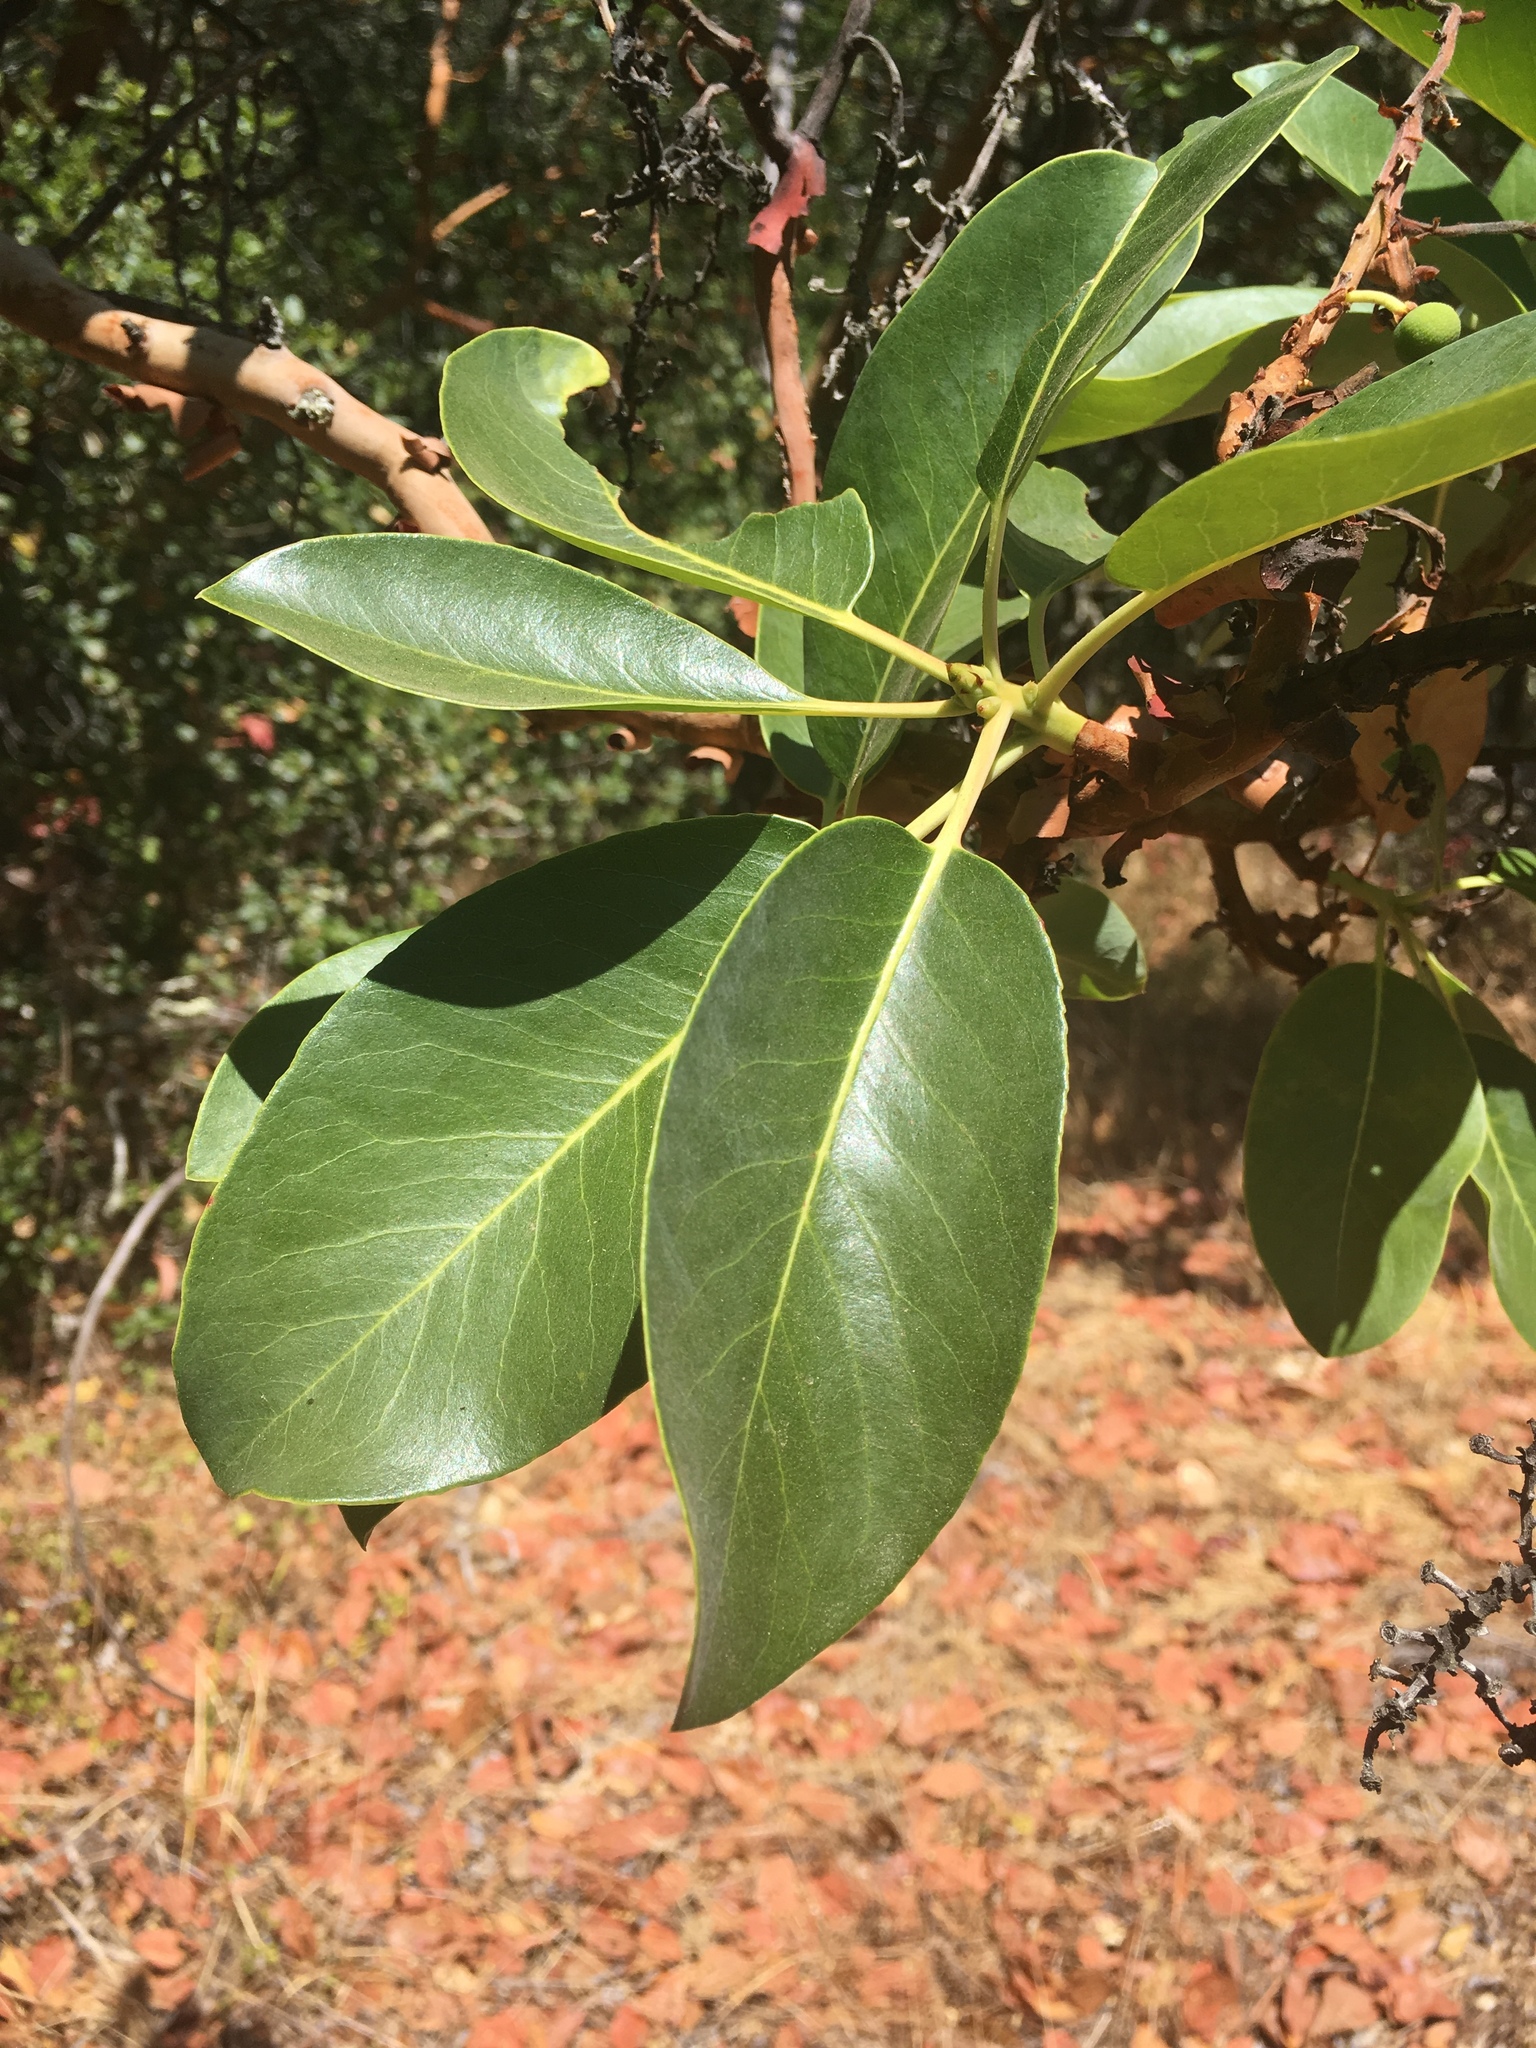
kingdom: Plantae
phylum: Tracheophyta
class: Magnoliopsida
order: Ericales
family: Ericaceae
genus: Arbutus
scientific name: Arbutus menziesii
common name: Pacific madrone
